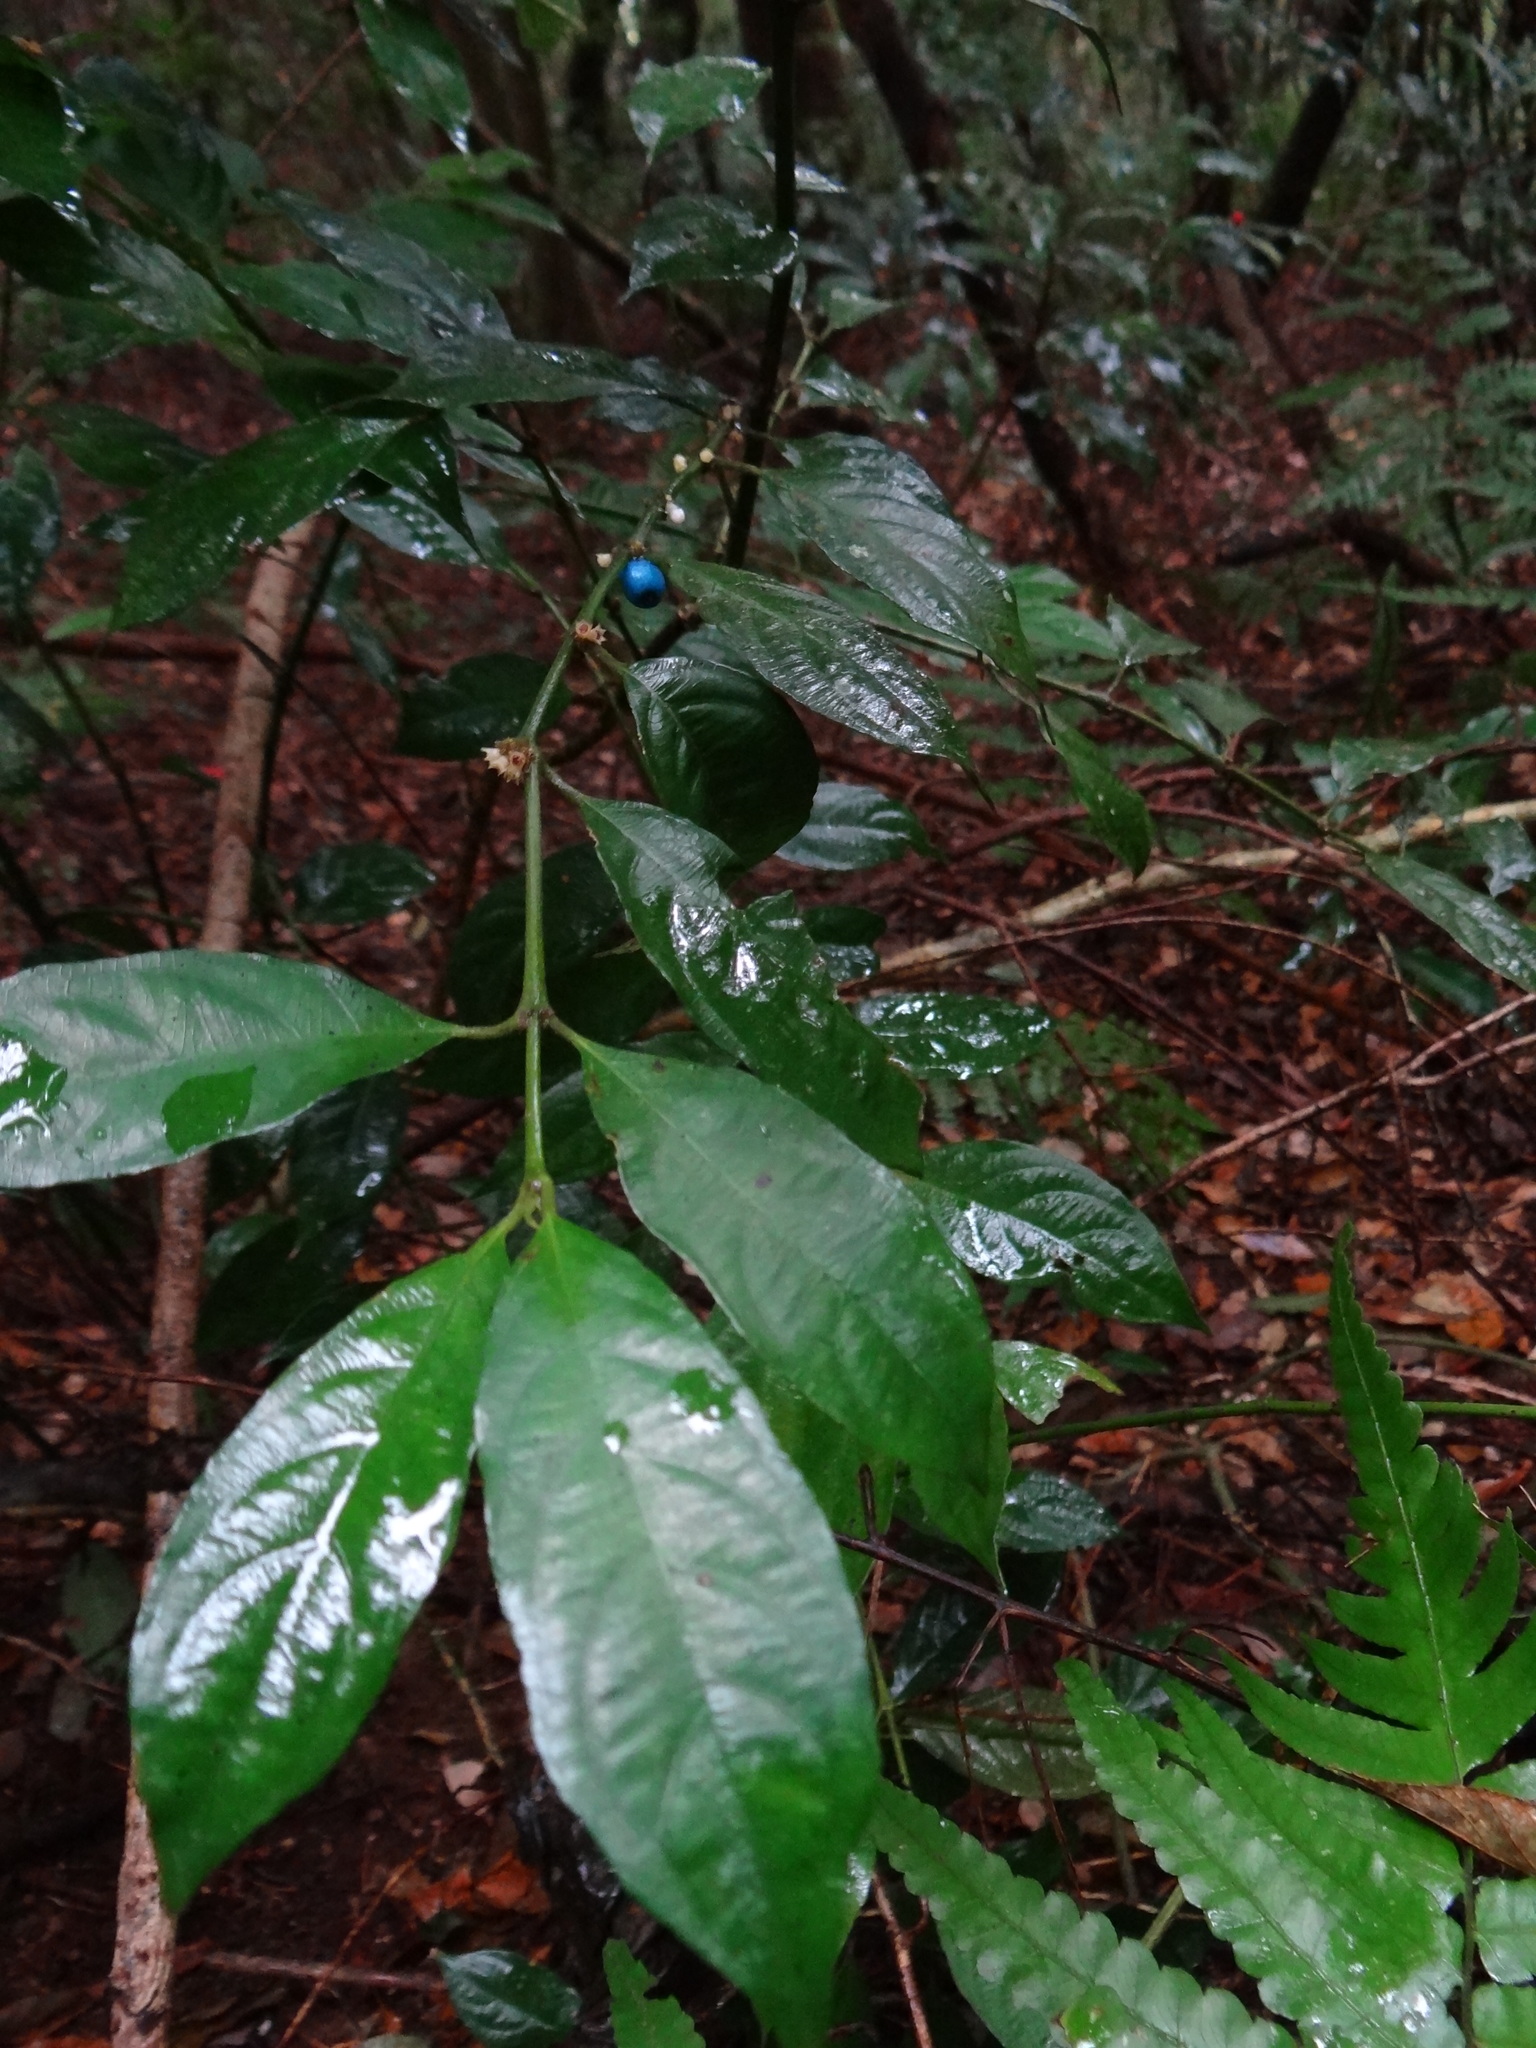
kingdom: Plantae
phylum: Tracheophyta
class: Magnoliopsida
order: Gentianales
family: Rubiaceae
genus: Lasianthus
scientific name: Lasianthus fordii
